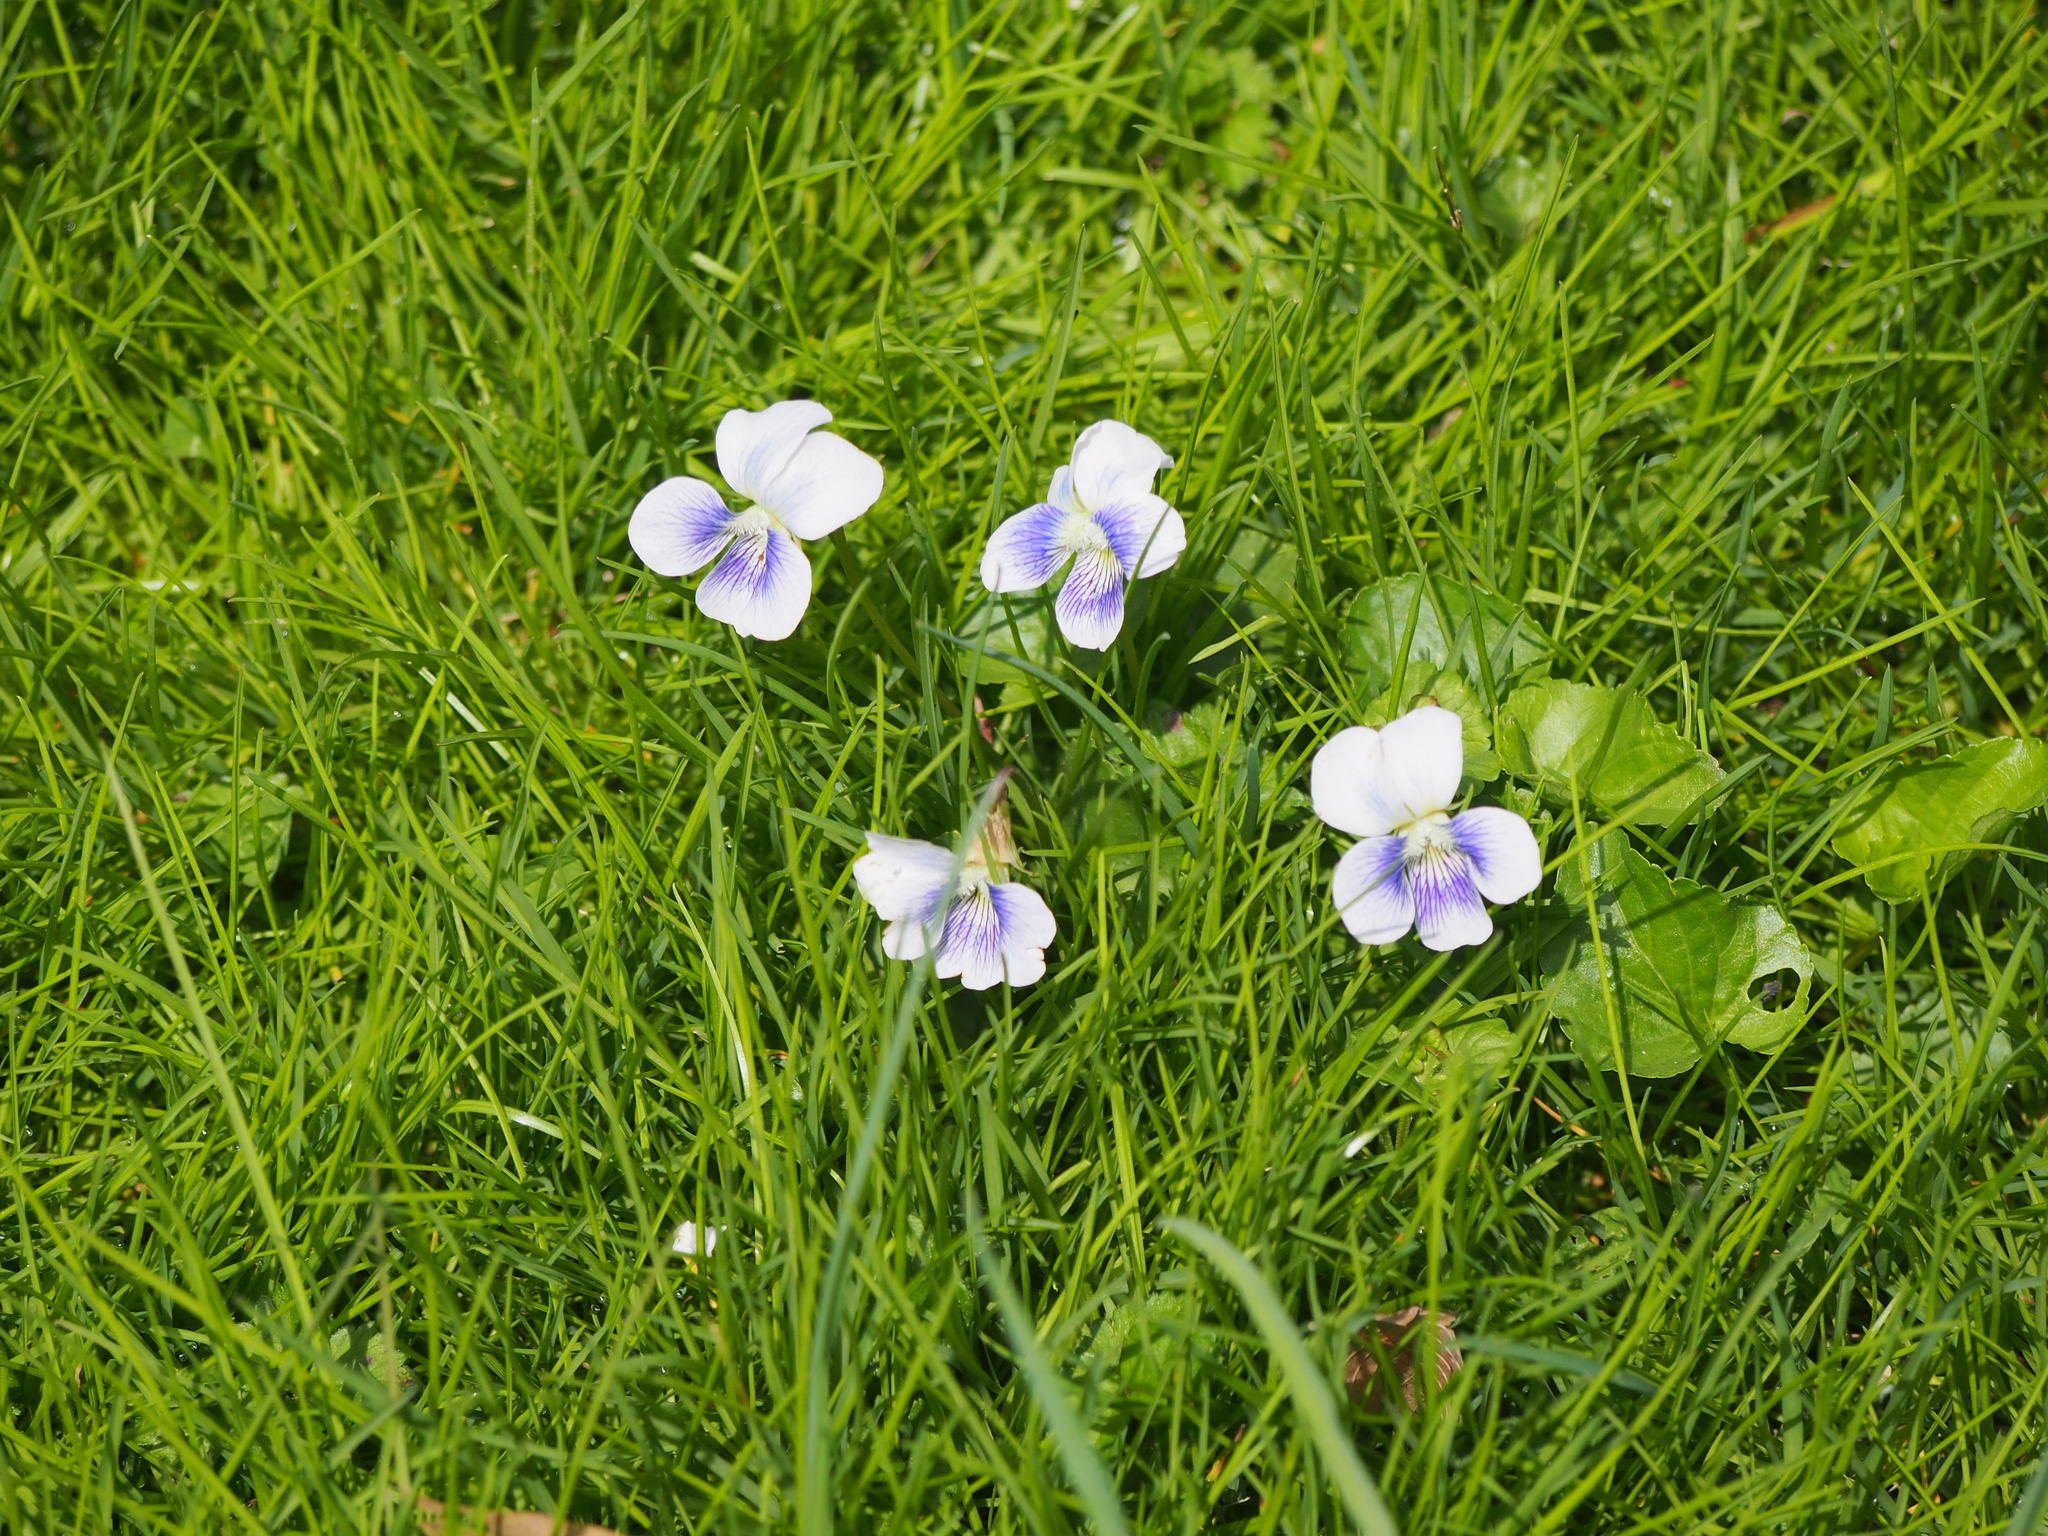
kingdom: Plantae
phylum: Tracheophyta
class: Magnoliopsida
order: Malpighiales
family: Violaceae
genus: Viola
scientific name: Viola sororia
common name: Dooryard violet
